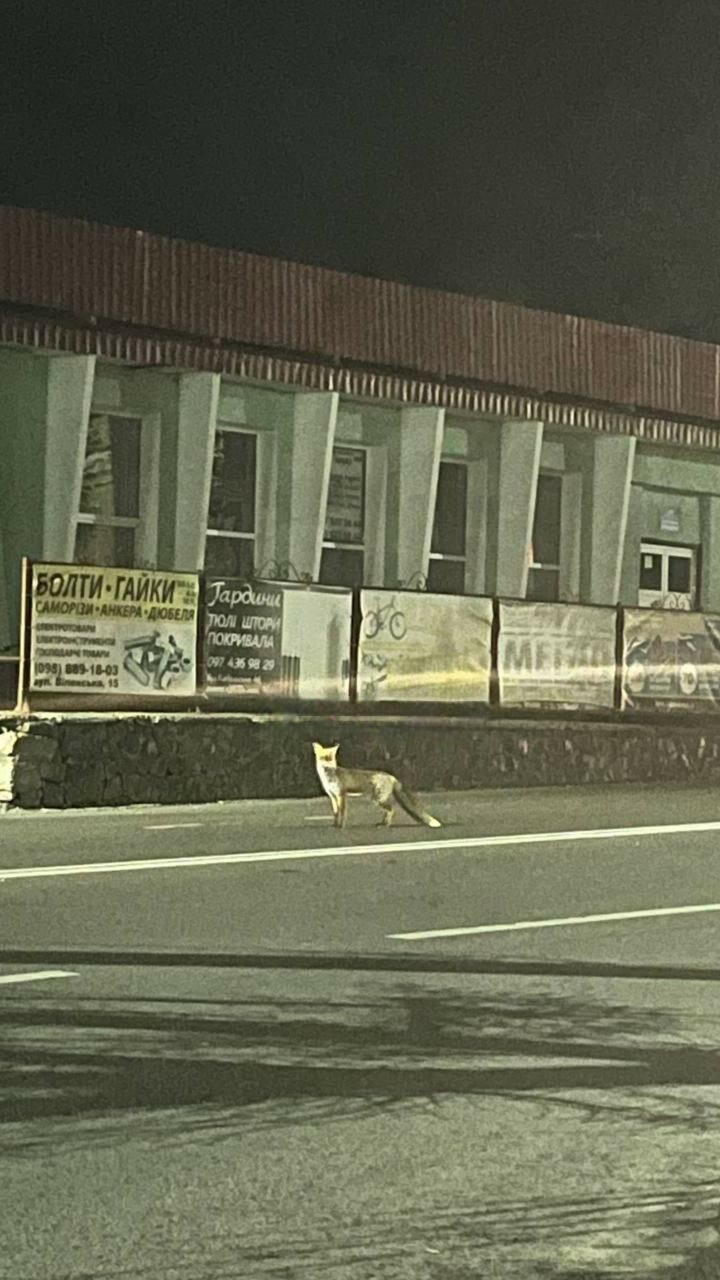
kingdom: Animalia
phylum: Chordata
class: Mammalia
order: Carnivora
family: Canidae
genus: Vulpes
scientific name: Vulpes vulpes
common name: Red fox
